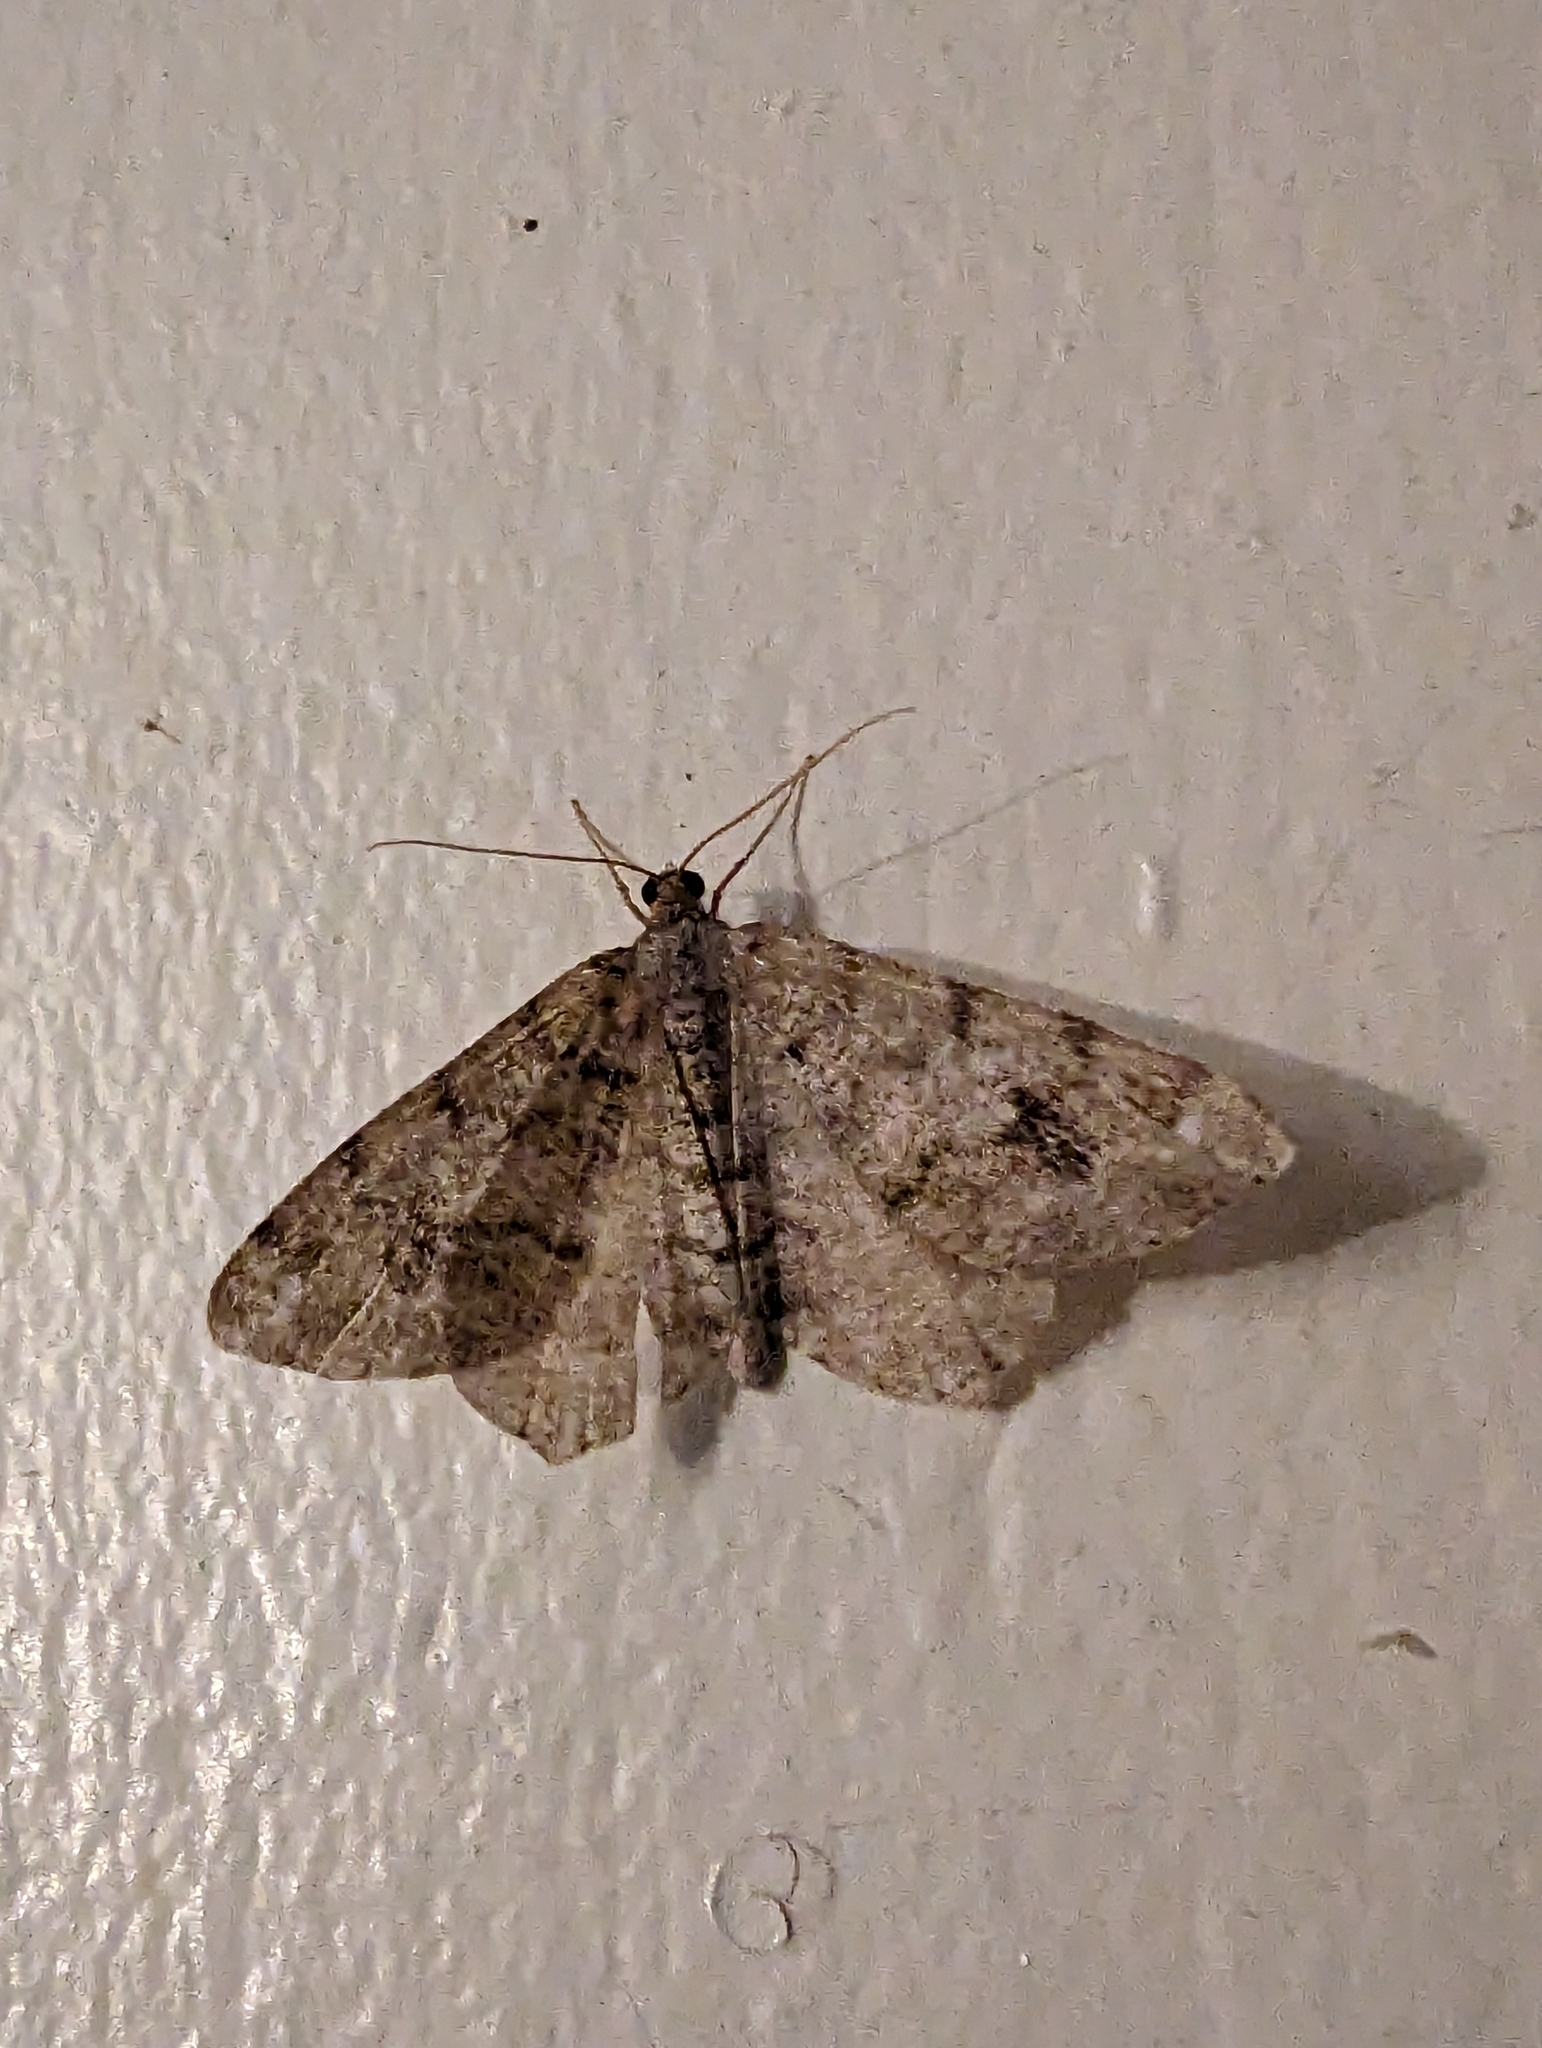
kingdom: Animalia
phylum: Arthropoda
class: Insecta
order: Lepidoptera
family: Geometridae
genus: Macaria
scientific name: Macaria signaria
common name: Dusky peacock
